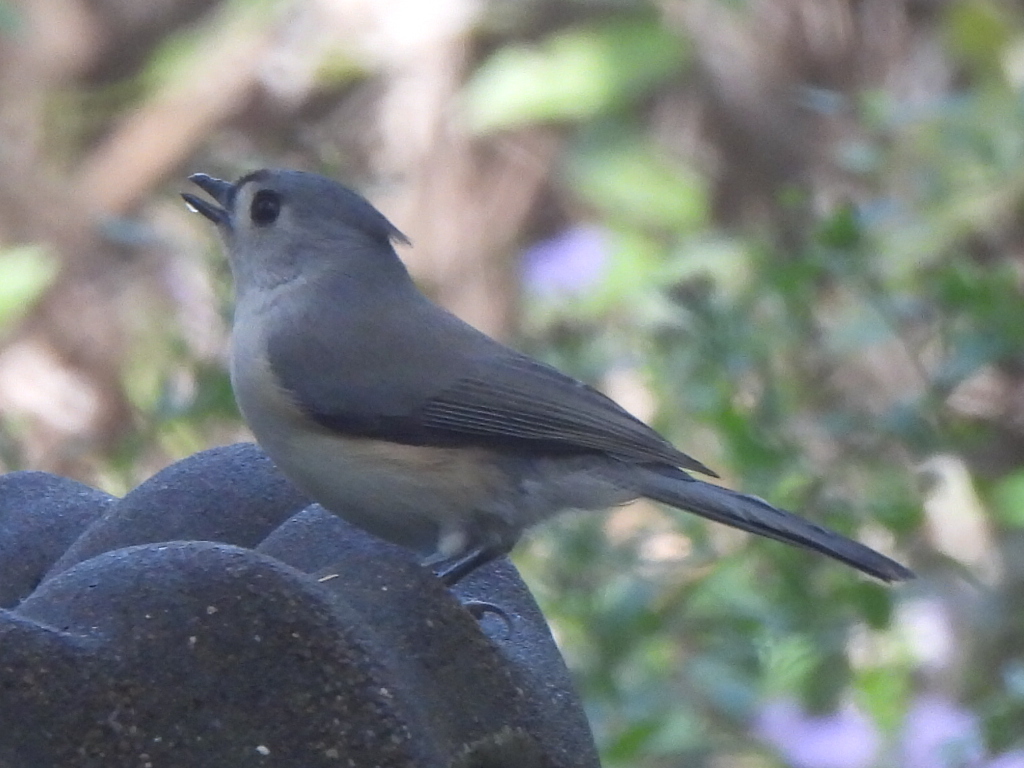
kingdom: Animalia
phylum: Chordata
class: Aves
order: Passeriformes
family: Paridae
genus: Baeolophus
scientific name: Baeolophus bicolor
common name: Tufted titmouse
